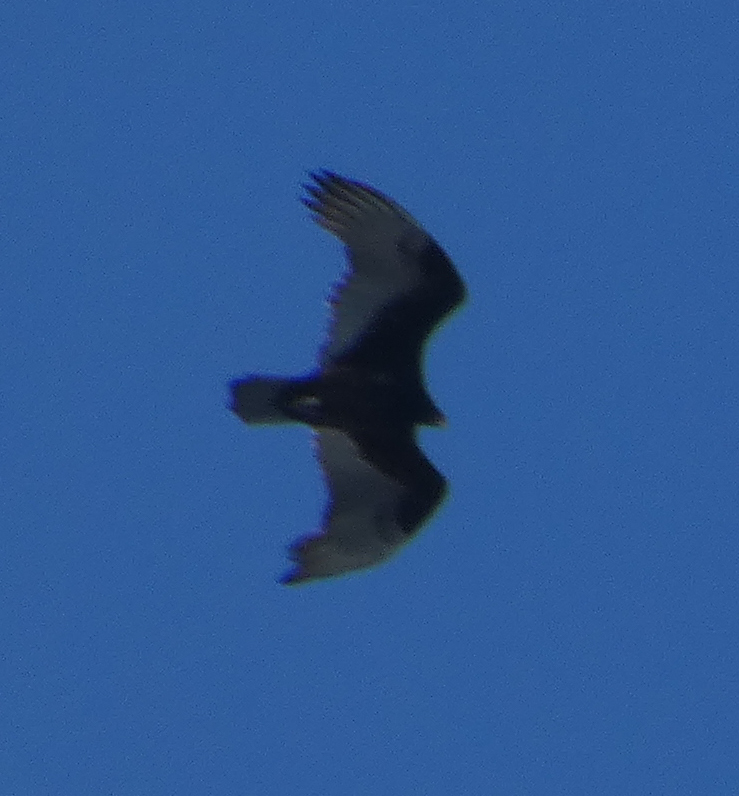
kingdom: Animalia
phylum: Chordata
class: Aves
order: Accipitriformes
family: Cathartidae
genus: Cathartes
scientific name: Cathartes aura
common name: Turkey vulture
